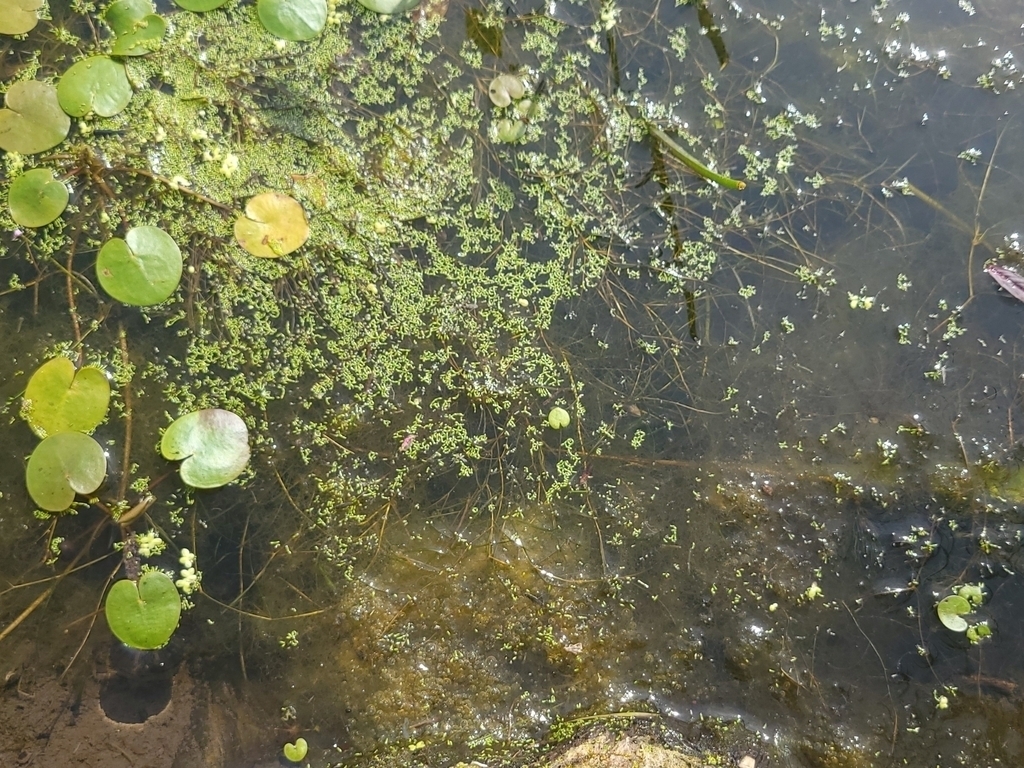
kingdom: Plantae
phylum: Tracheophyta
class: Liliopsida
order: Alismatales
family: Araceae
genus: Wolffia
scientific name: Wolffia columbiana
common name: Columbia watermeal
